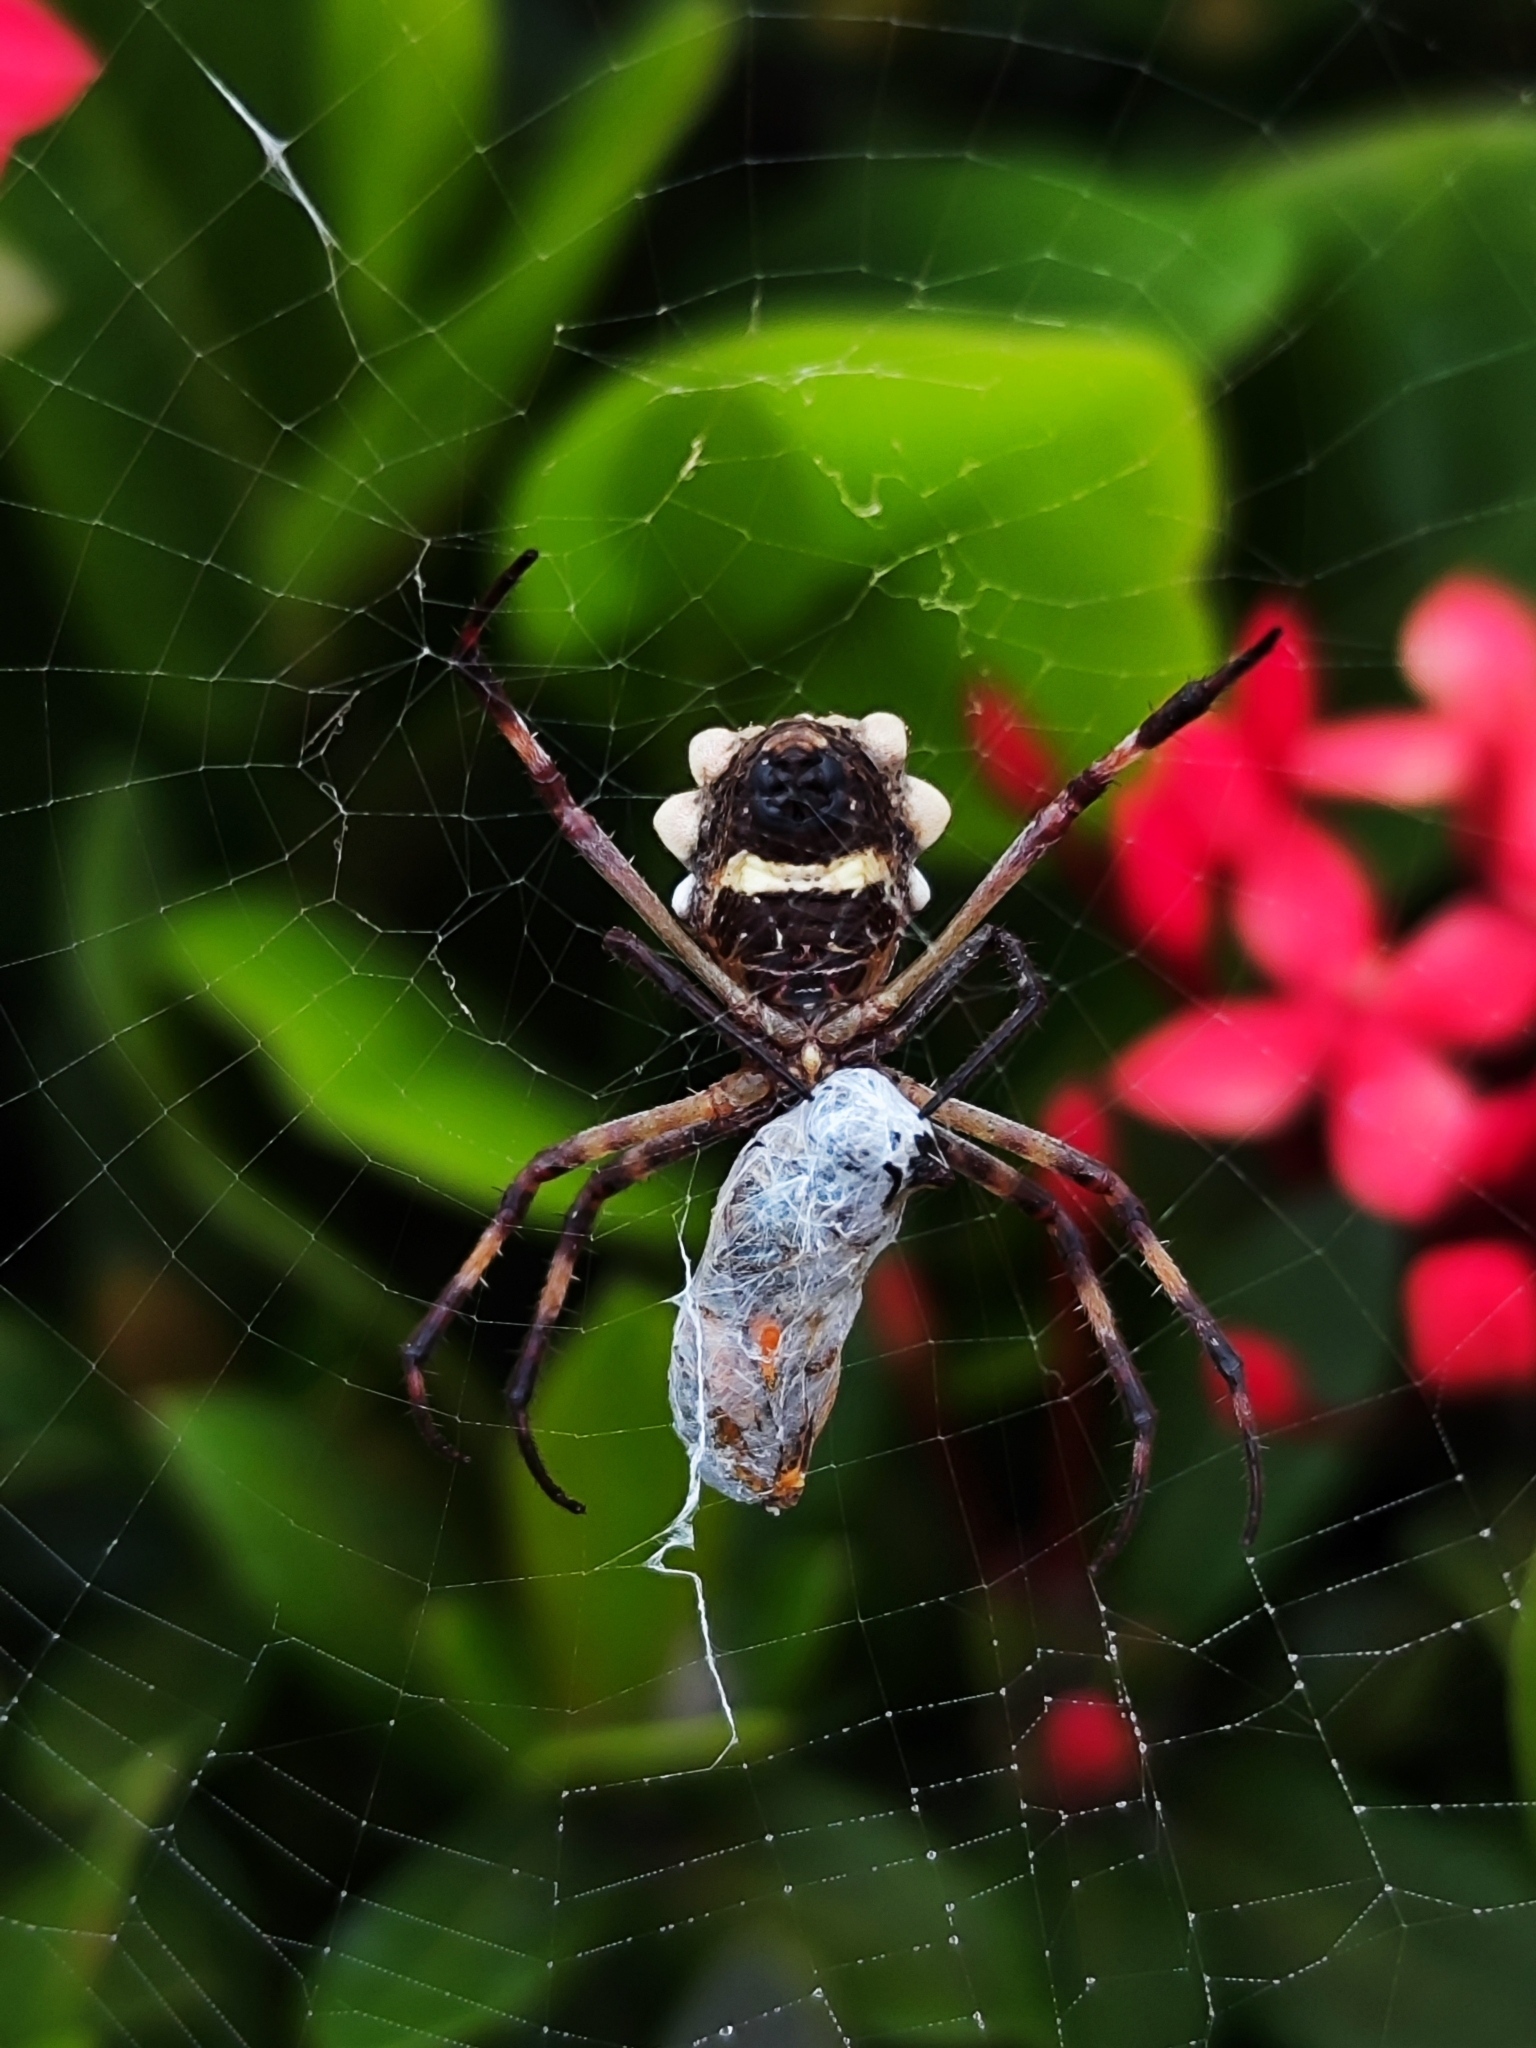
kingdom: Animalia
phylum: Arthropoda
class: Arachnida
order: Araneae
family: Araneidae
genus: Argiope
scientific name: Argiope argentata
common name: Orb weavers
